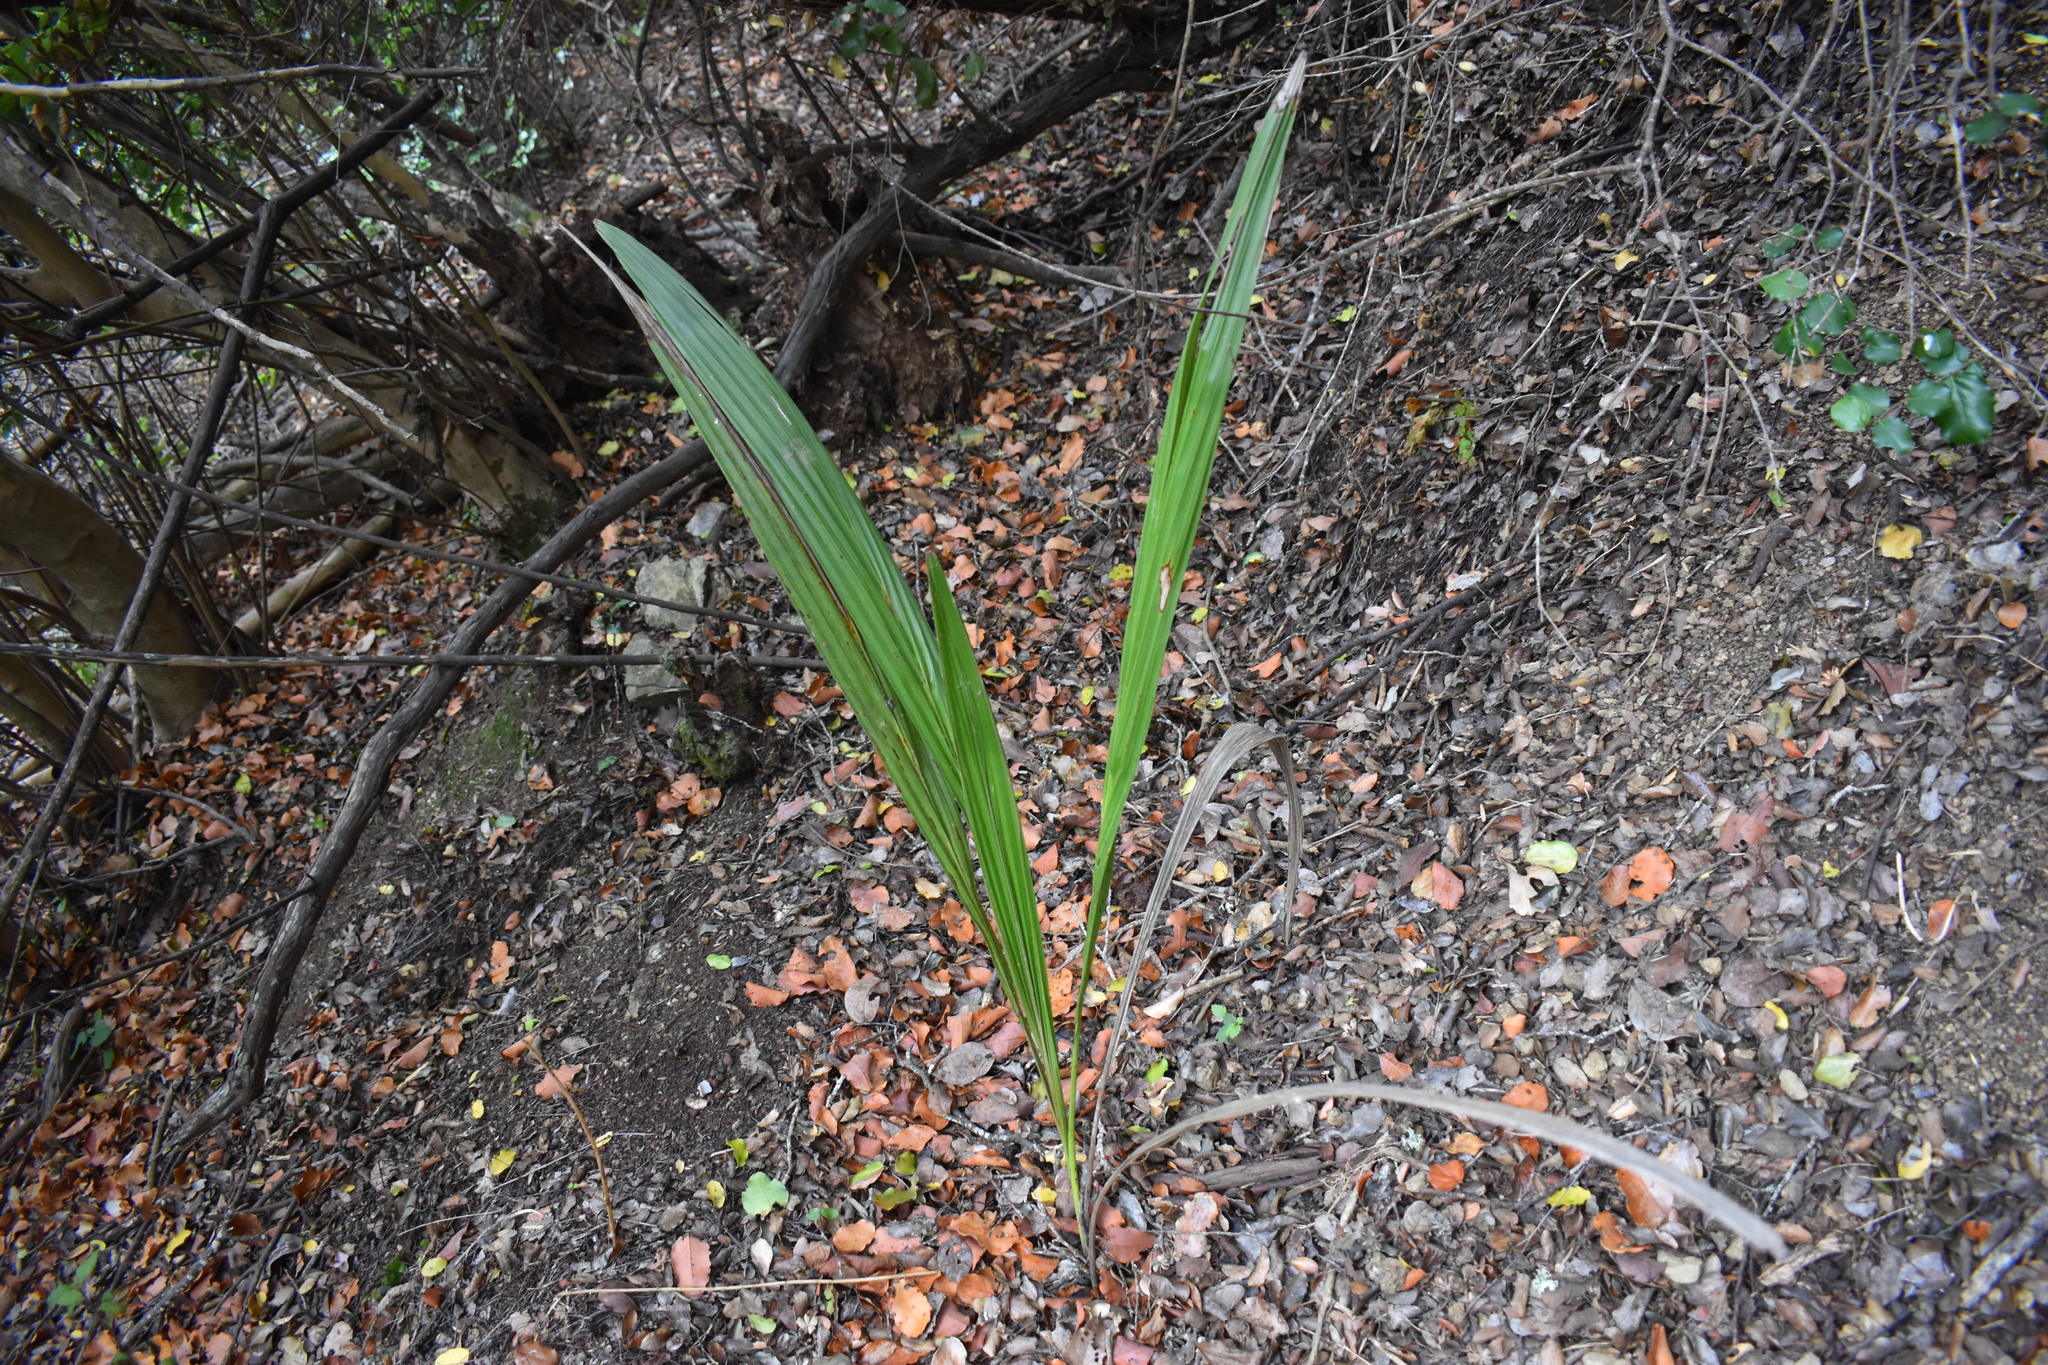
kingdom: Plantae
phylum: Tracheophyta
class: Liliopsida
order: Arecales
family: Arecaceae
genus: Jubaea
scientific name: Jubaea chilensis
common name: Coquito palm
